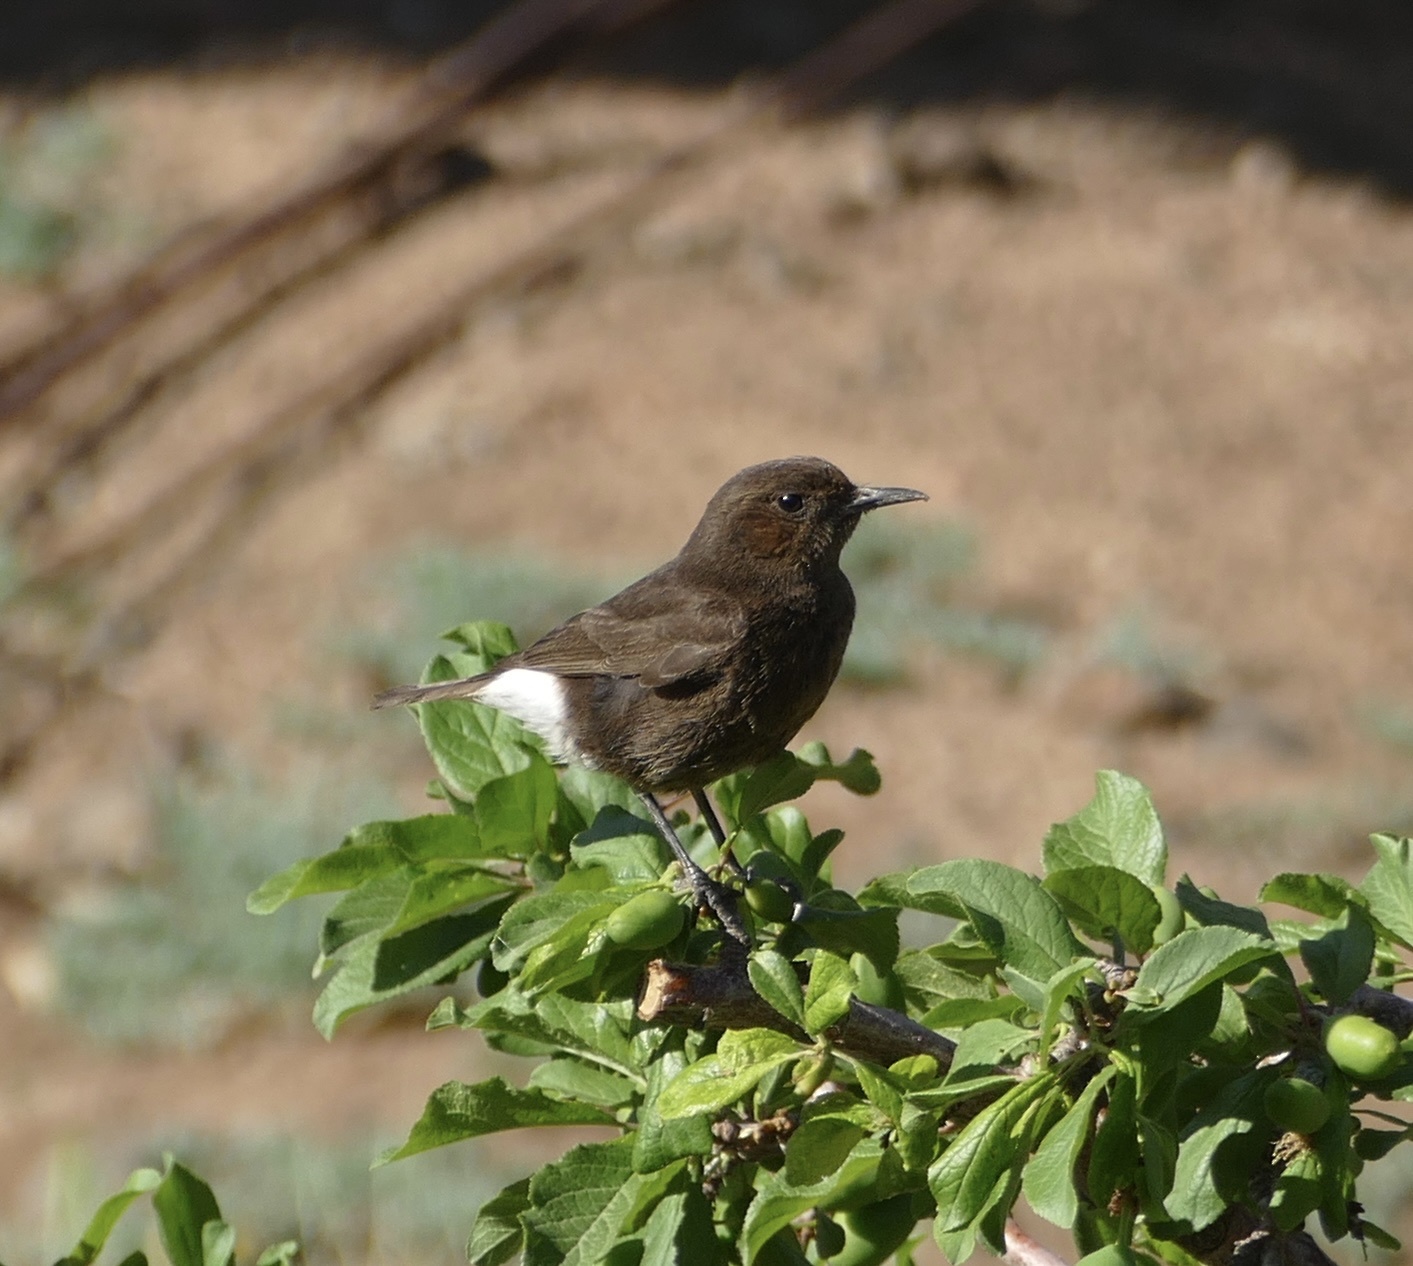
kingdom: Animalia
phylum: Chordata
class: Aves
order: Passeriformes
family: Muscicapidae
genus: Oenanthe
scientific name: Oenanthe leucura
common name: Black wheatear
